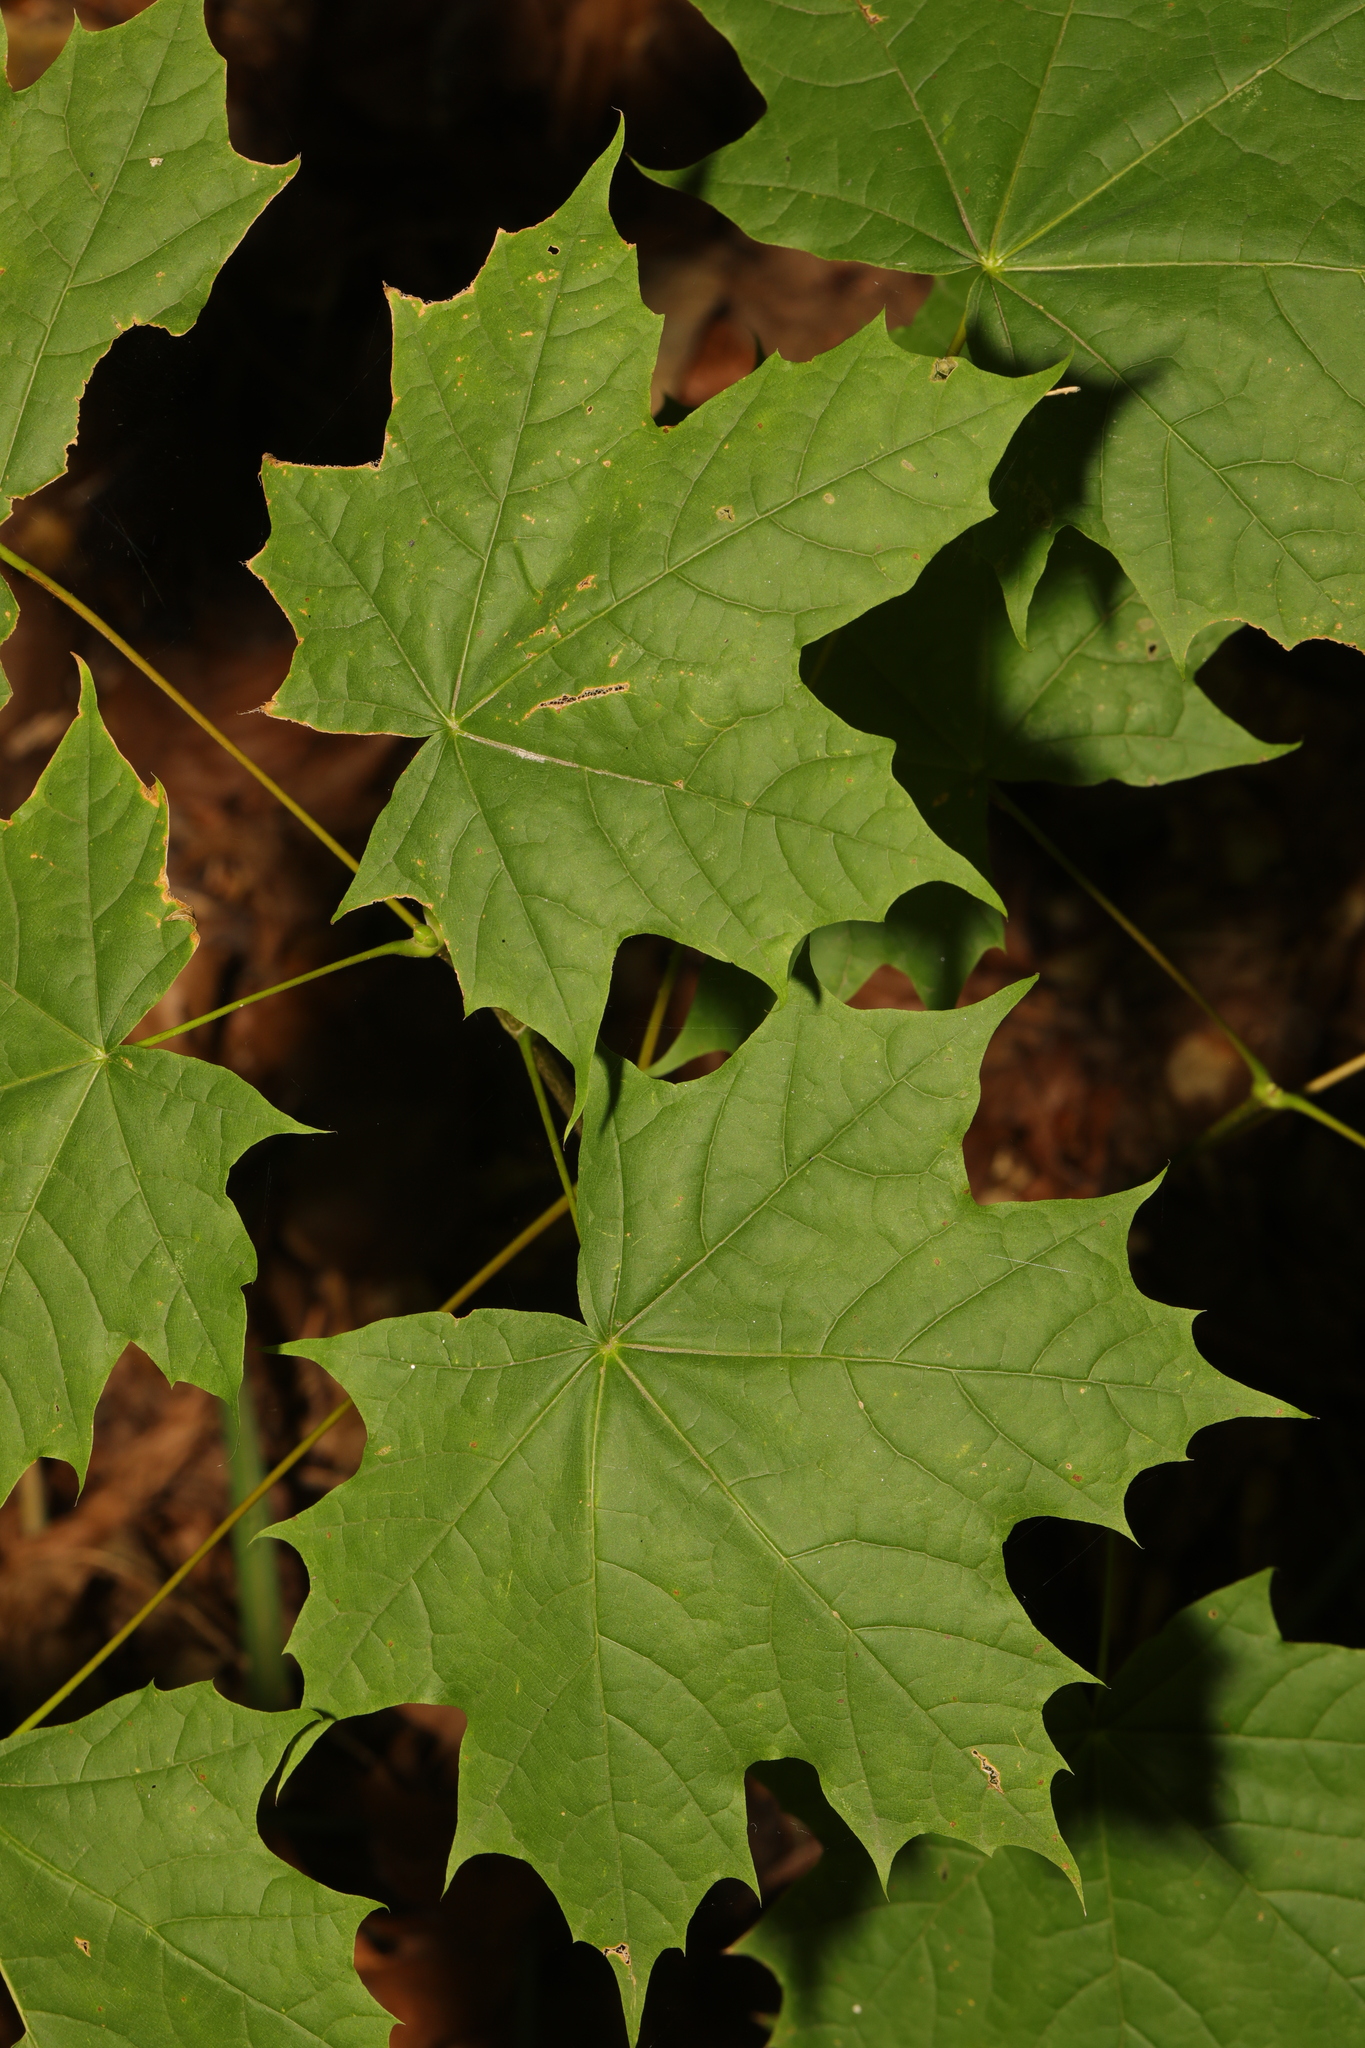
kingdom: Plantae
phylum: Tracheophyta
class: Magnoliopsida
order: Sapindales
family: Sapindaceae
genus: Acer
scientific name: Acer platanoides
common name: Norway maple
